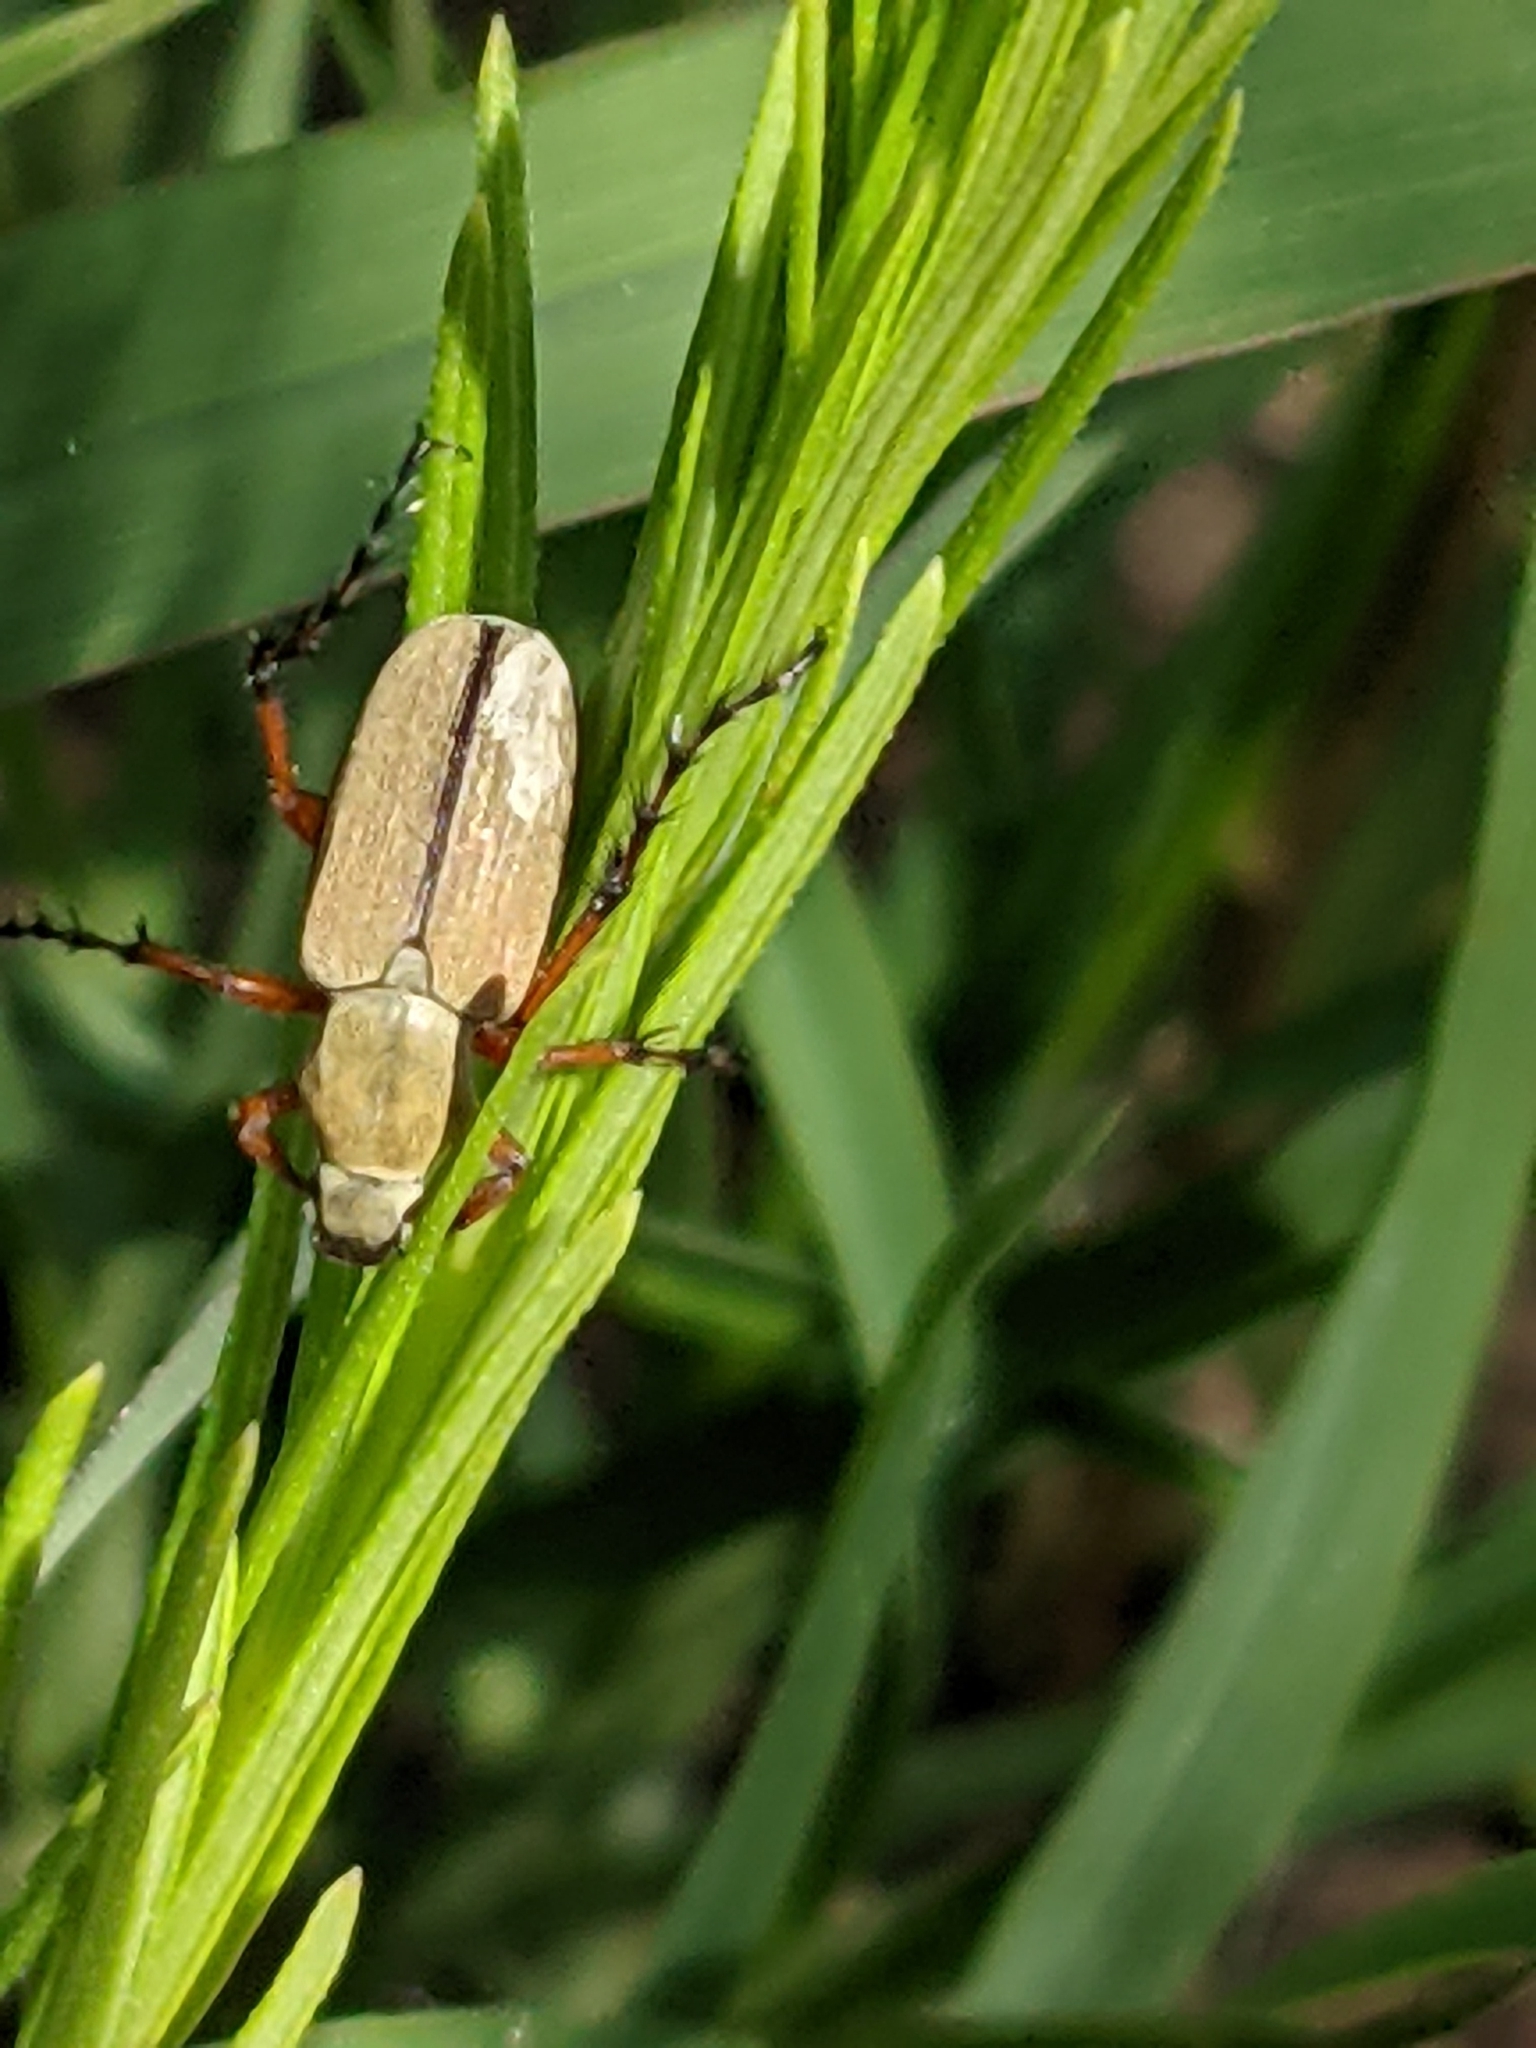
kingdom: Animalia
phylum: Arthropoda
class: Insecta
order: Coleoptera
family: Scarabaeidae
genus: Macrodactylus
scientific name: Macrodactylus subspinosus
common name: American rose chafer
